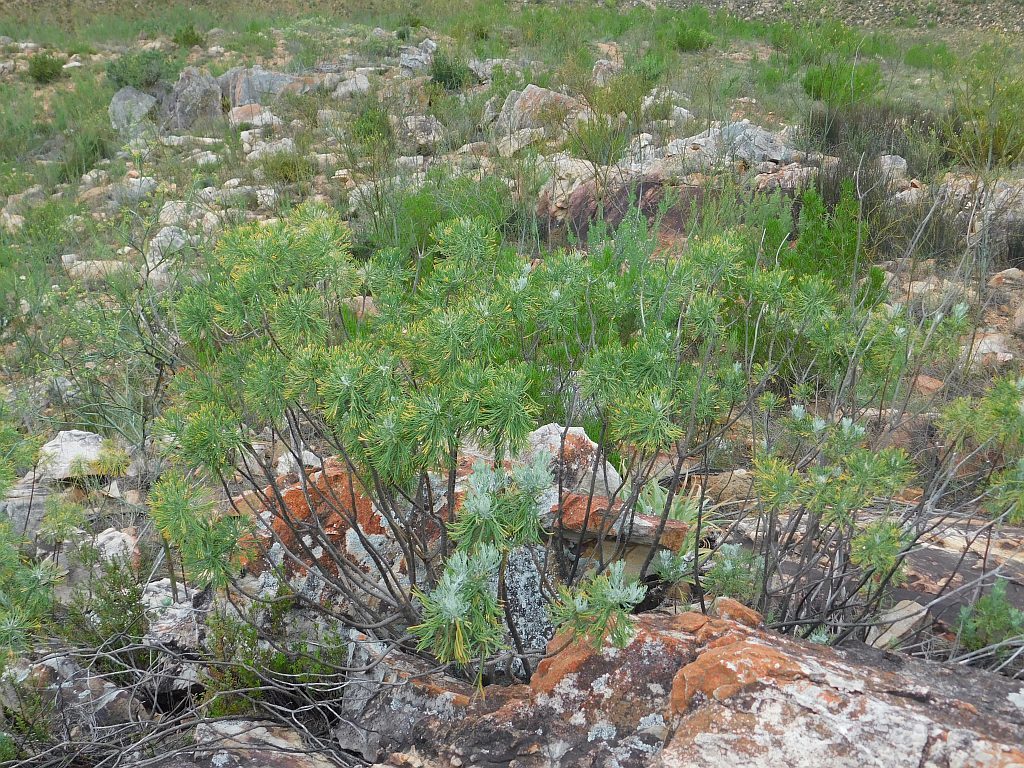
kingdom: Plantae
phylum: Tracheophyta
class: Magnoliopsida
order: Asterales
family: Asteraceae
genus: Hymenolepis
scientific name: Hymenolepis crithmifolia
